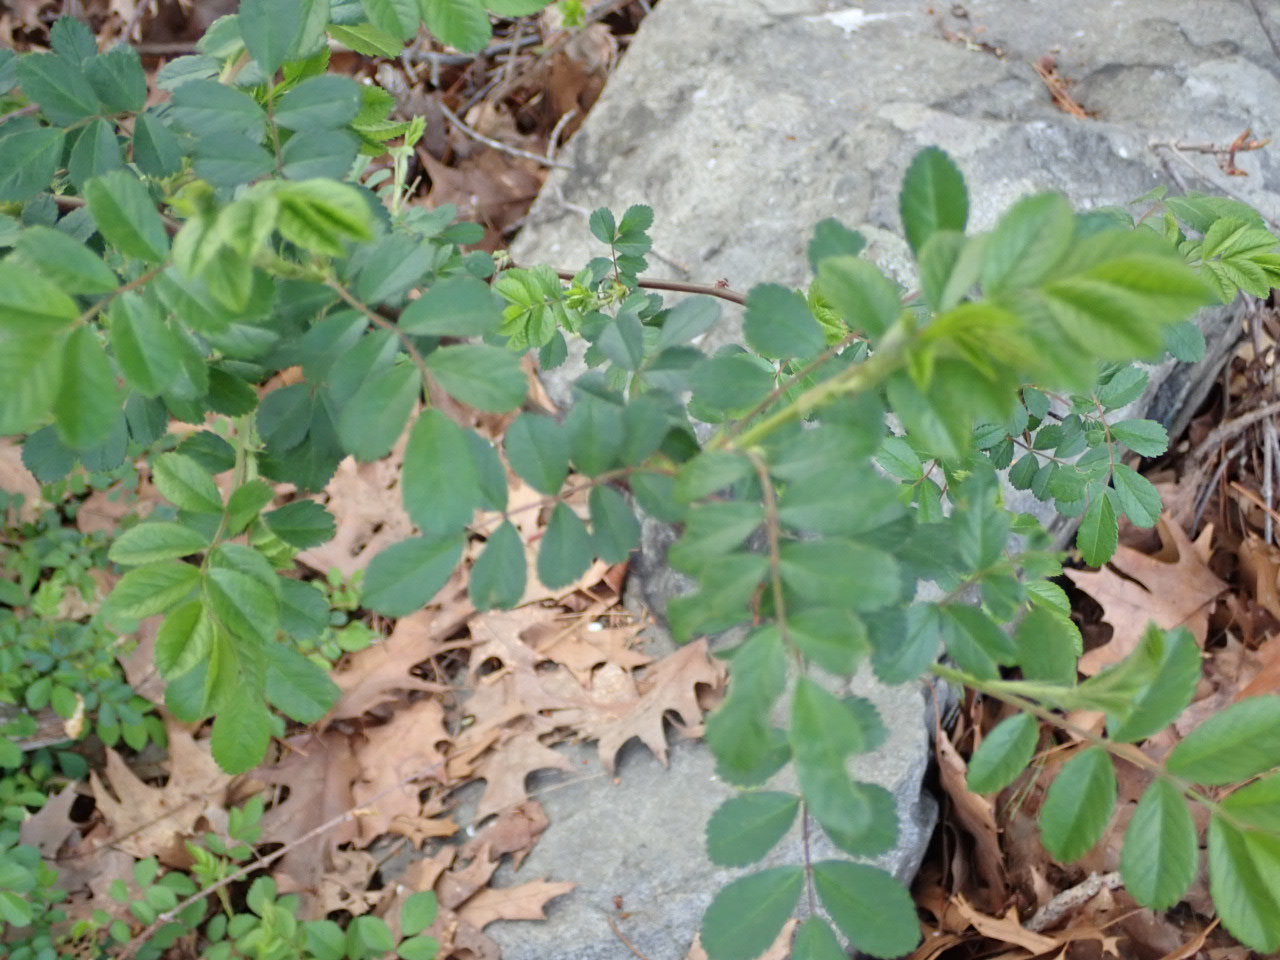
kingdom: Plantae
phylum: Tracheophyta
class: Magnoliopsida
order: Rosales
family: Rosaceae
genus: Rosa
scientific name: Rosa multiflora
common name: Multiflora rose
